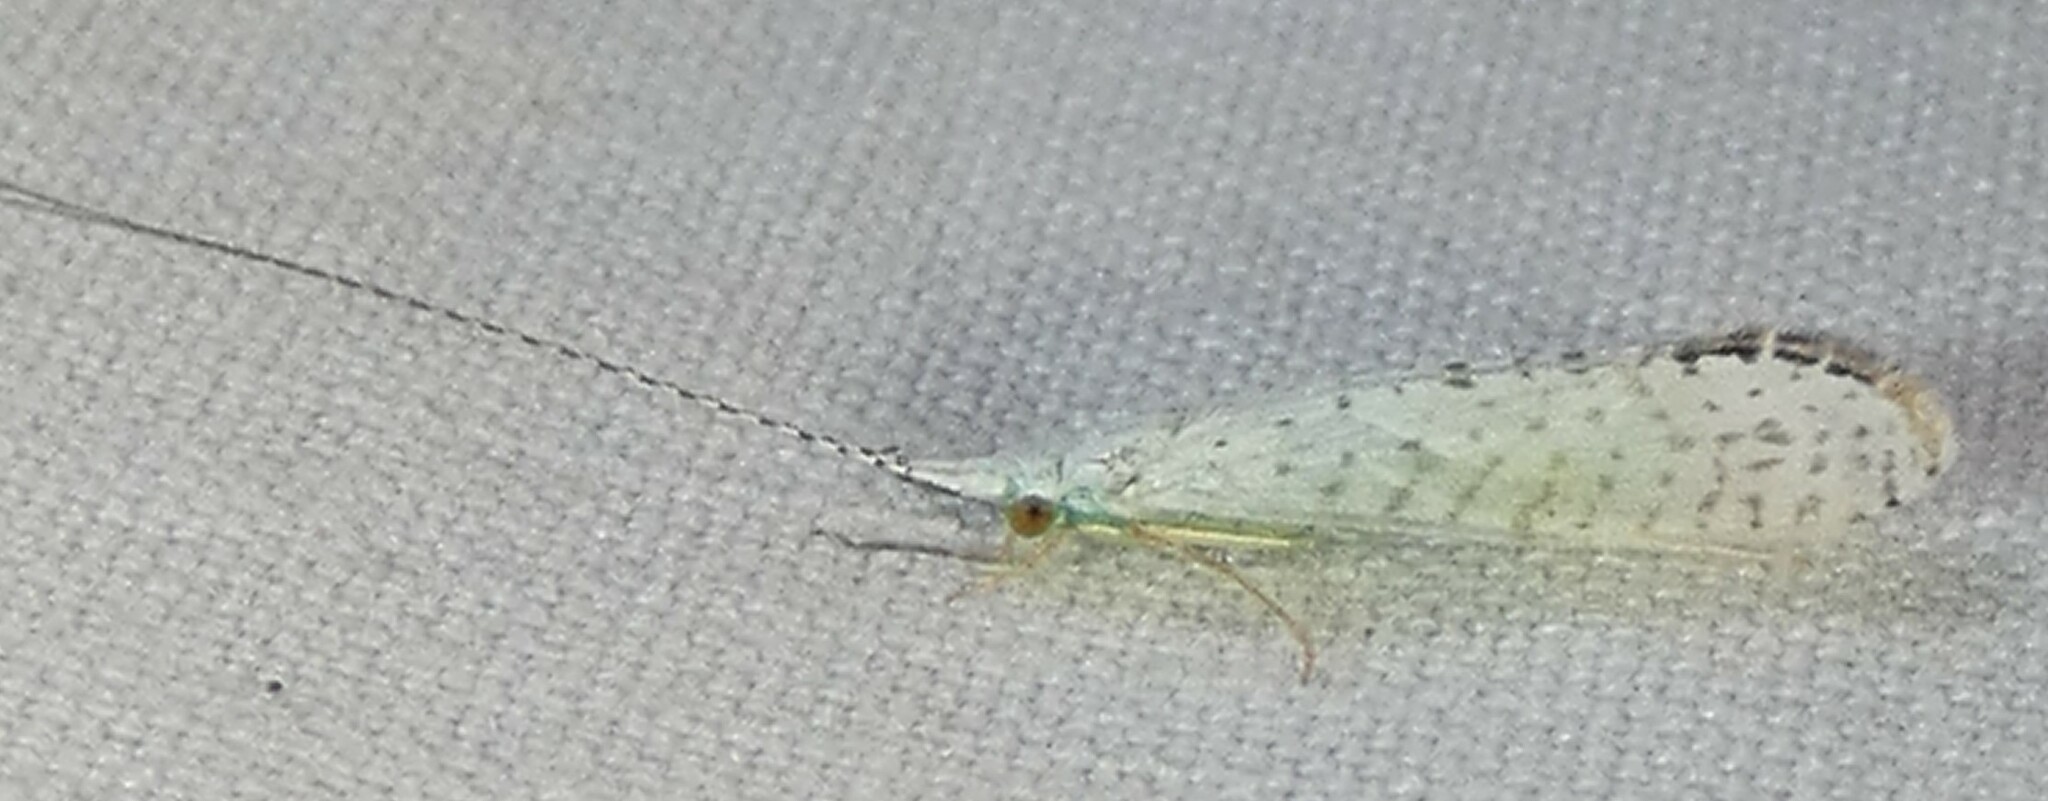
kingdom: Animalia
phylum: Arthropoda
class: Insecta
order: Trichoptera
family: Leptoceridae
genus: Nectopsyche
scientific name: Nectopsyche candida
